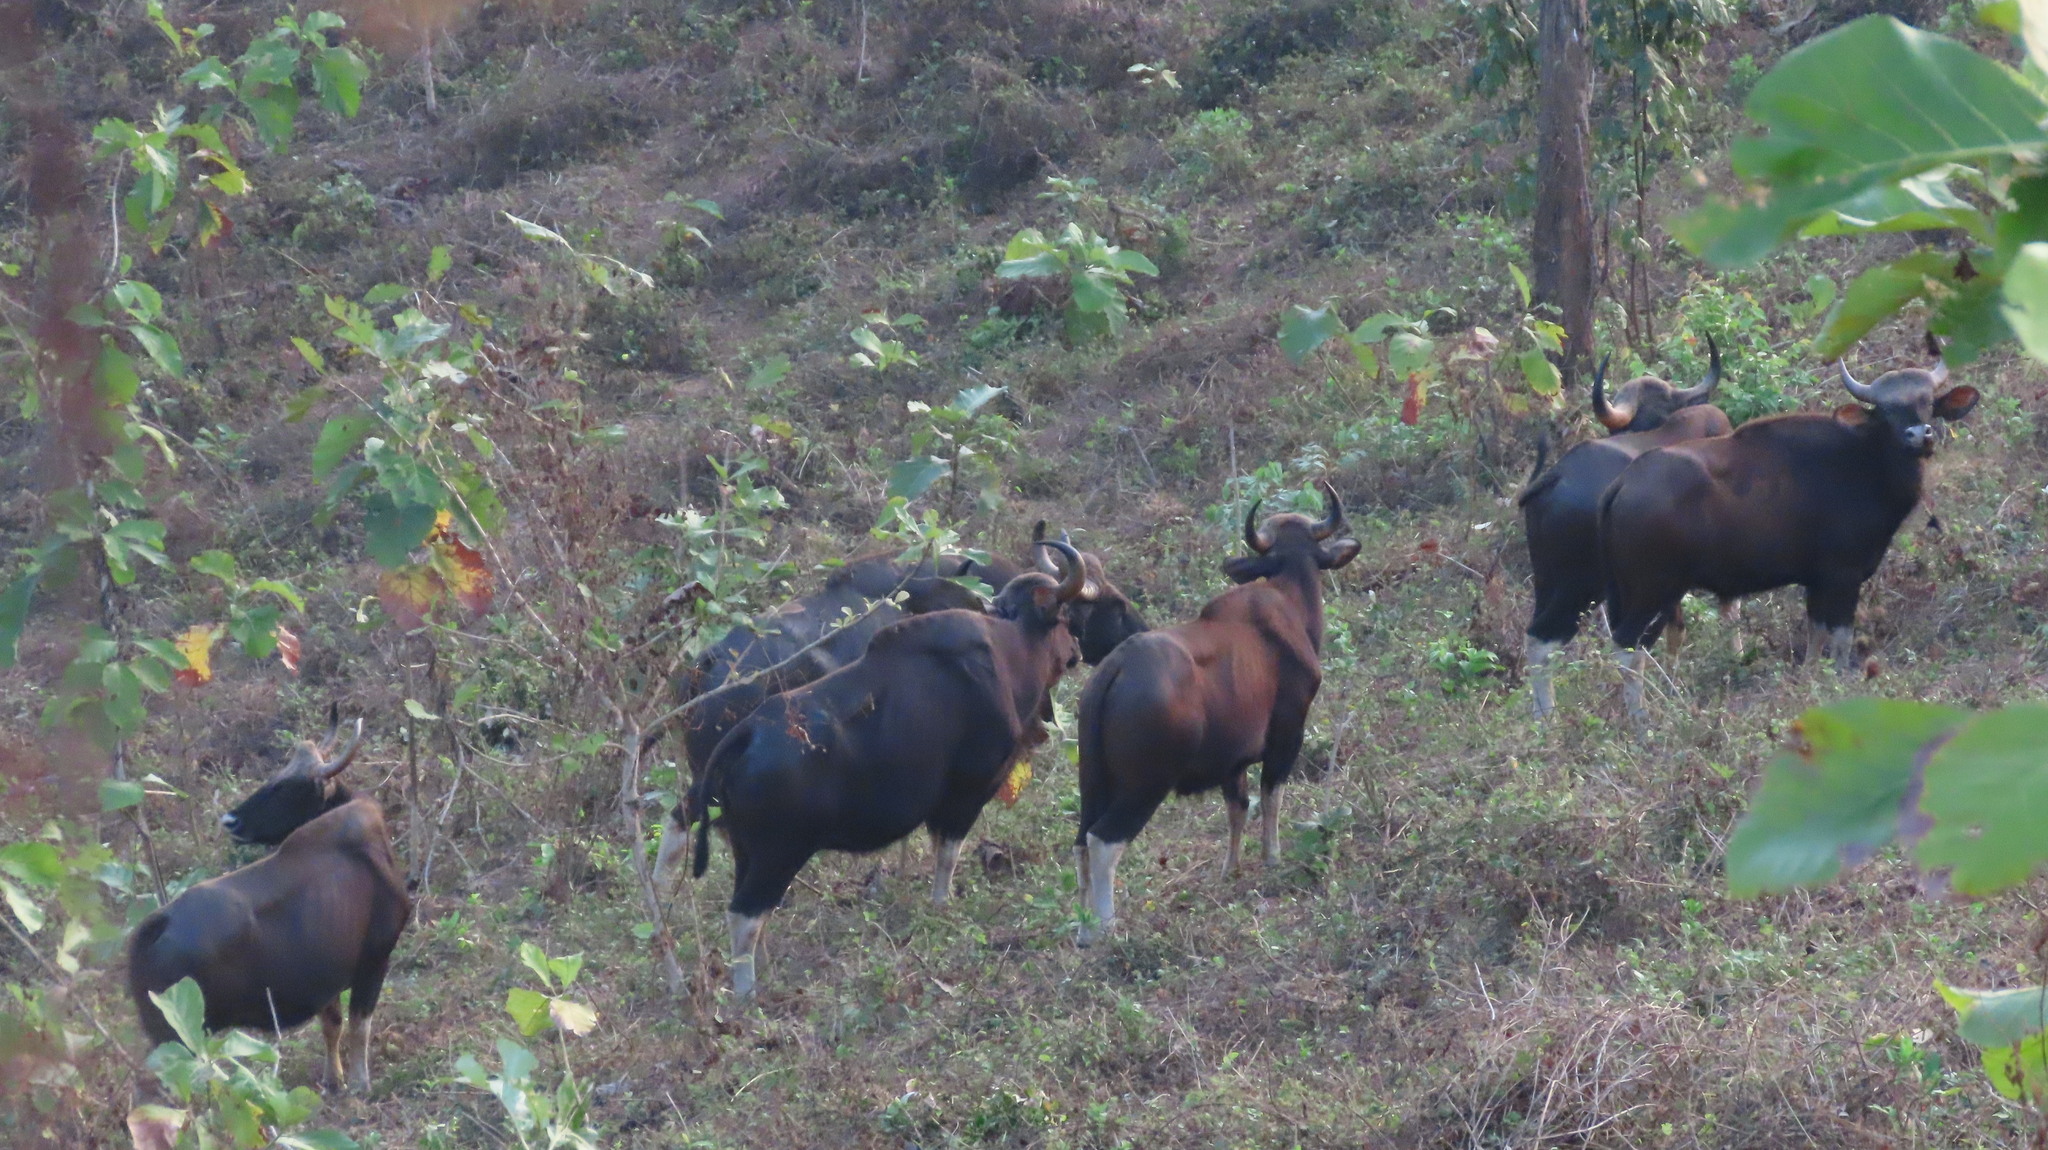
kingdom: Animalia
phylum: Chordata
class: Mammalia
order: Artiodactyla
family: Bovidae
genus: Bos
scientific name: Bos frontalis
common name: Gaur
